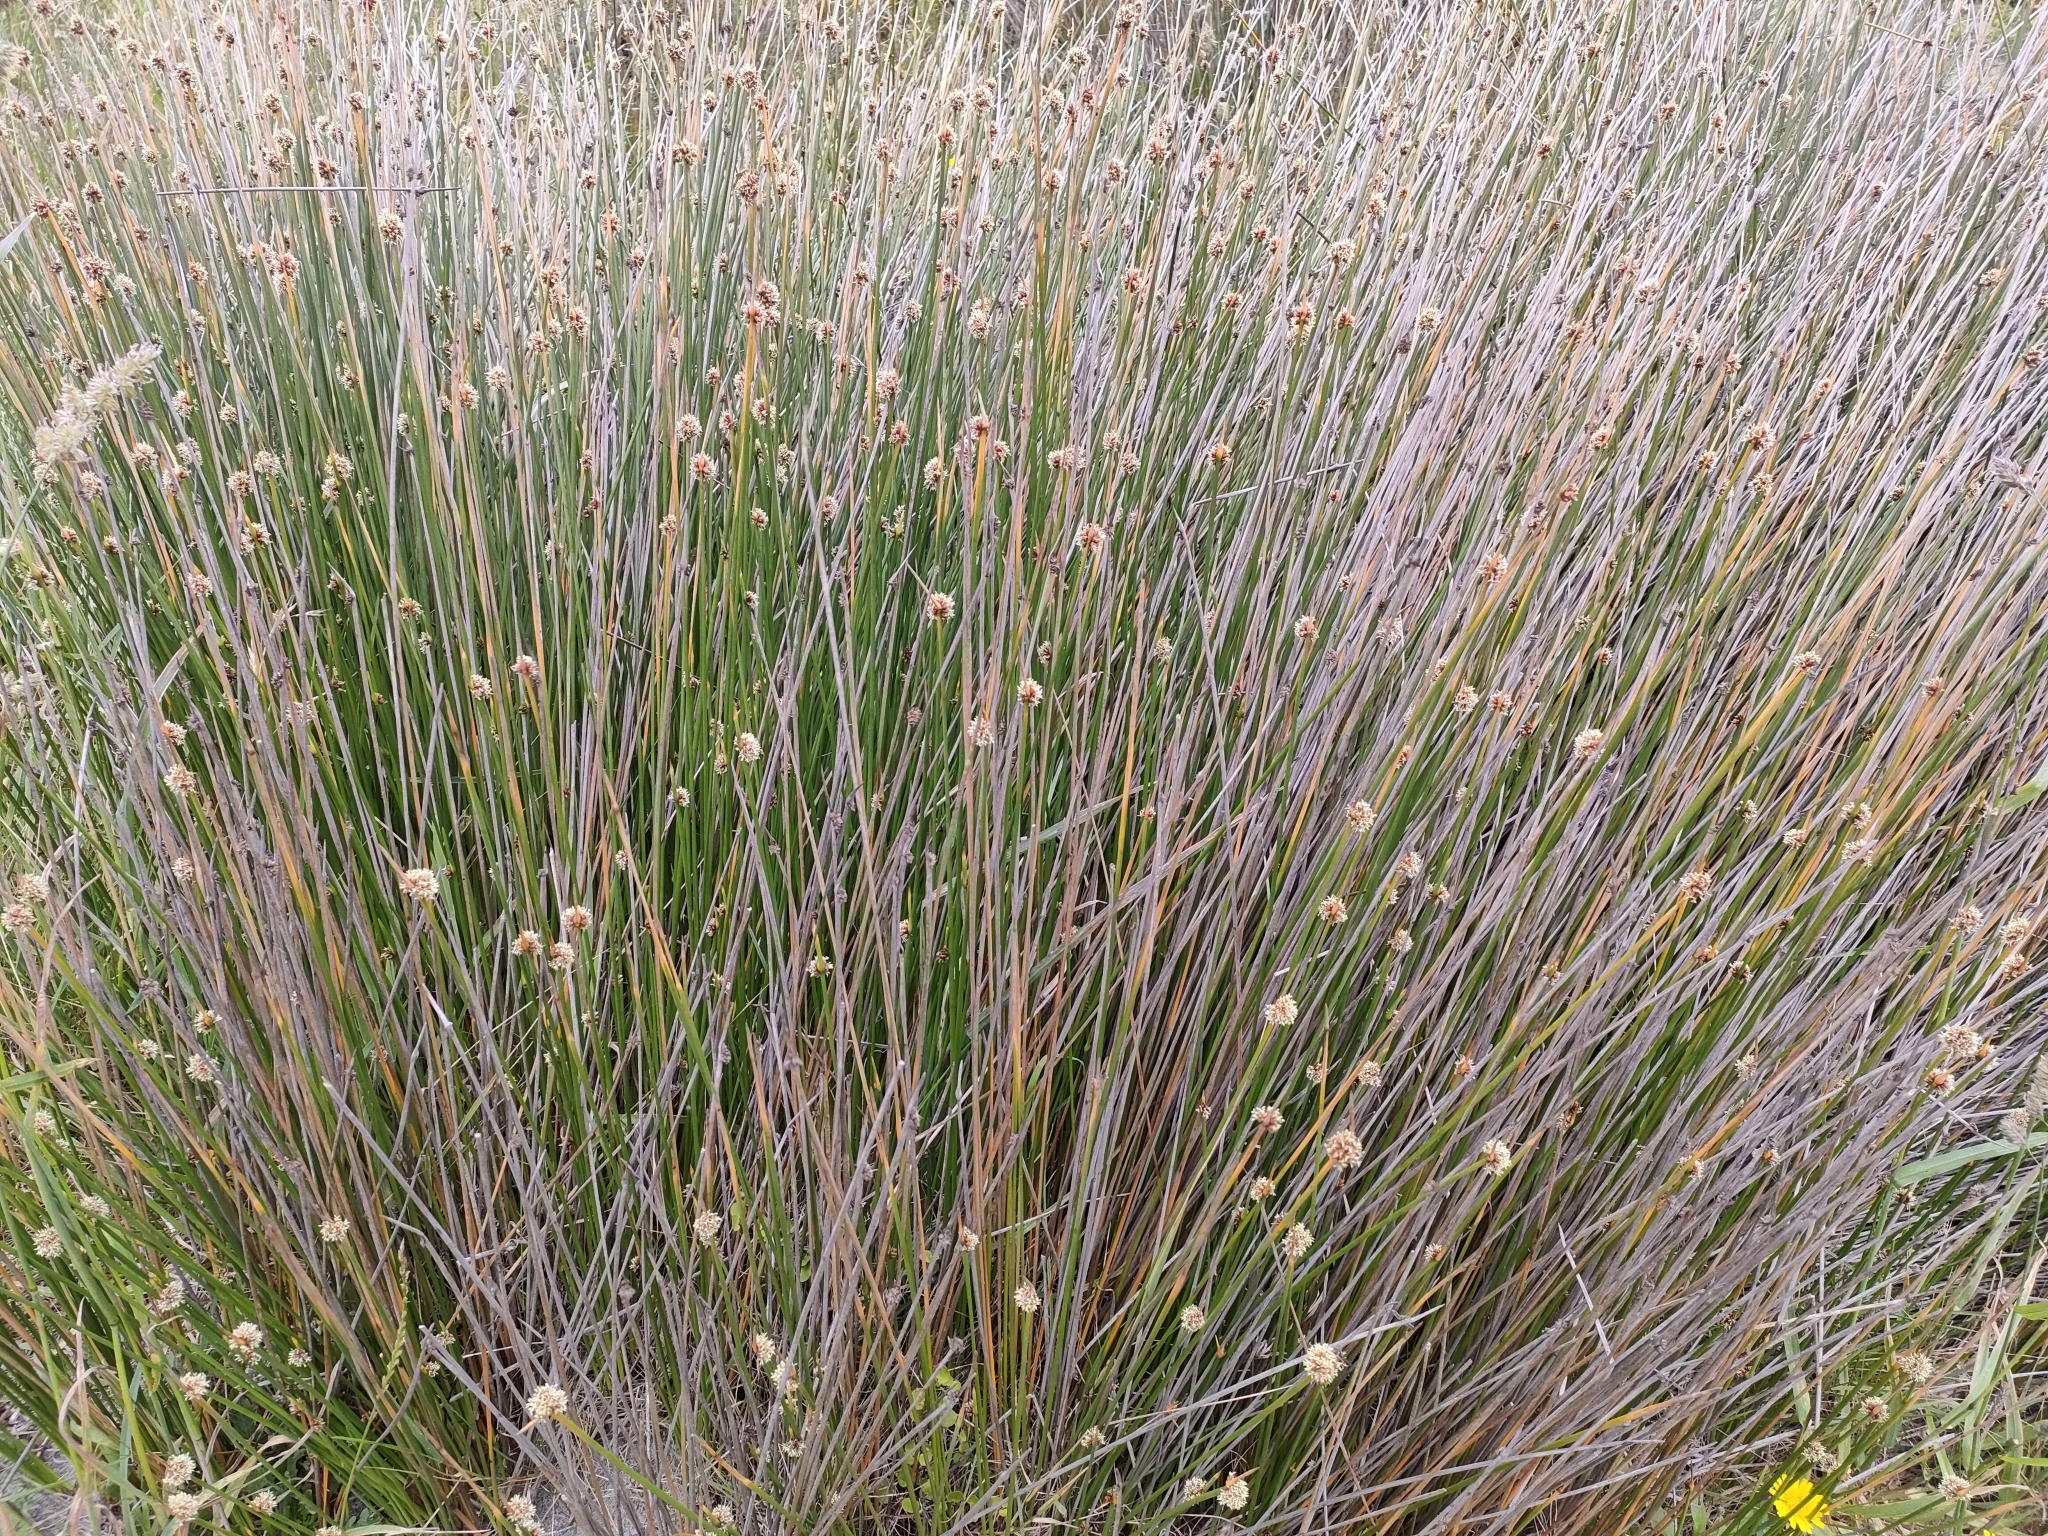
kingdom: Plantae
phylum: Tracheophyta
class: Liliopsida
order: Poales
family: Cyperaceae
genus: Ficinia
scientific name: Ficinia nodosa
